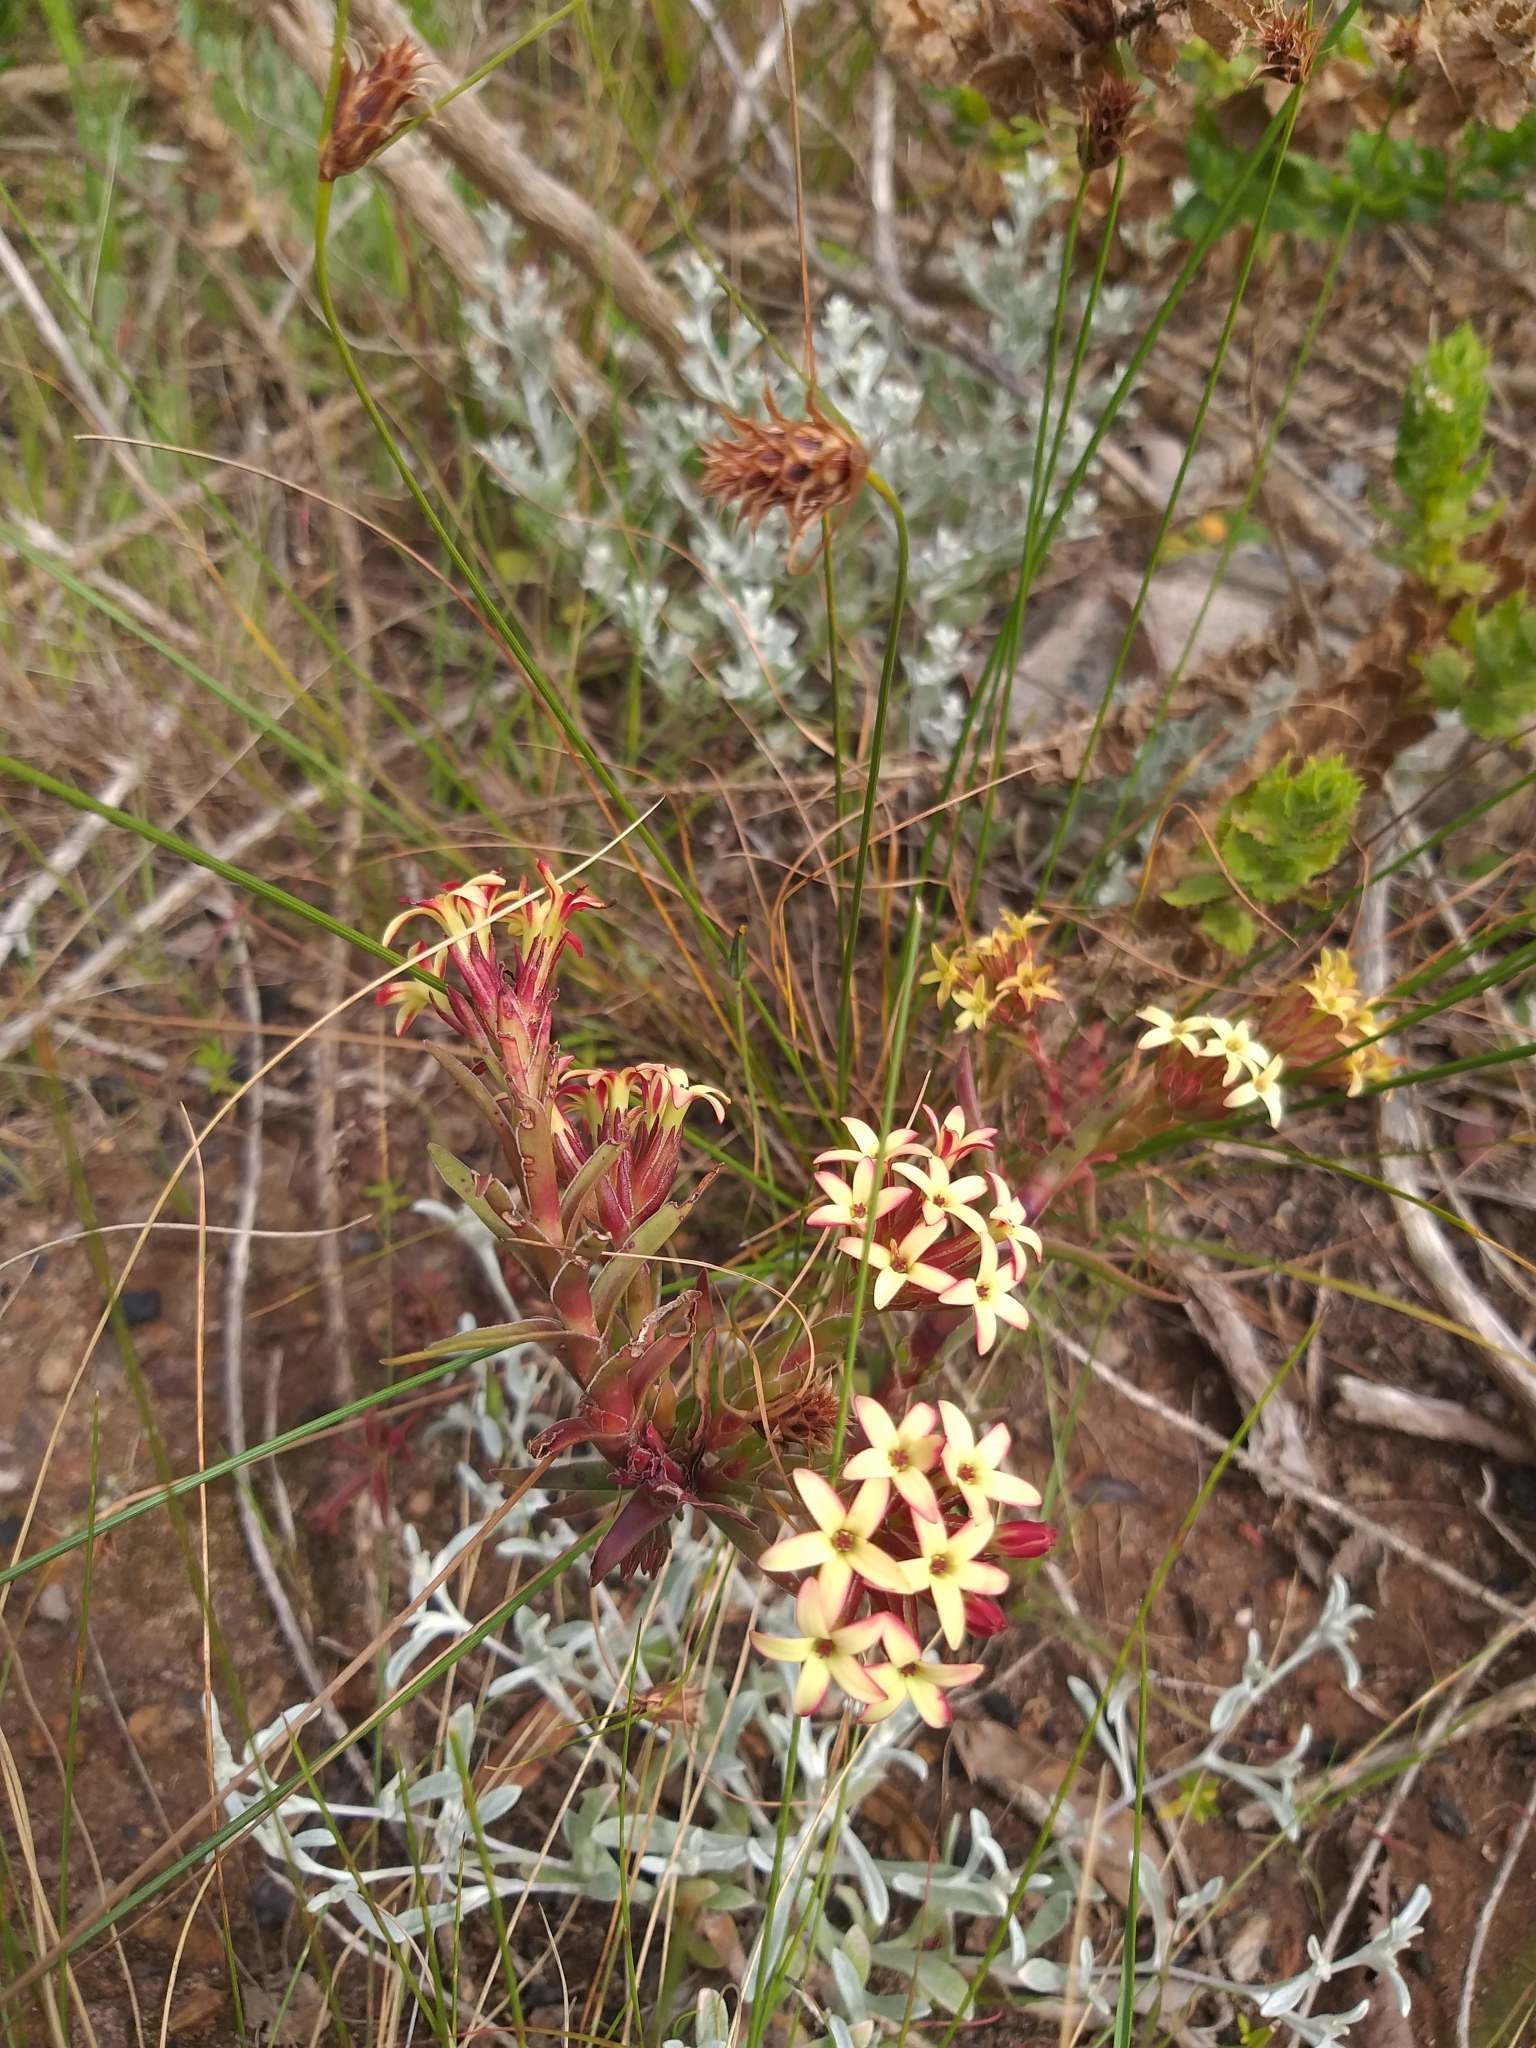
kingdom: Plantae
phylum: Tracheophyta
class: Magnoliopsida
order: Saxifragales
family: Crassulaceae
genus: Crassula
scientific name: Crassula fascicularis
